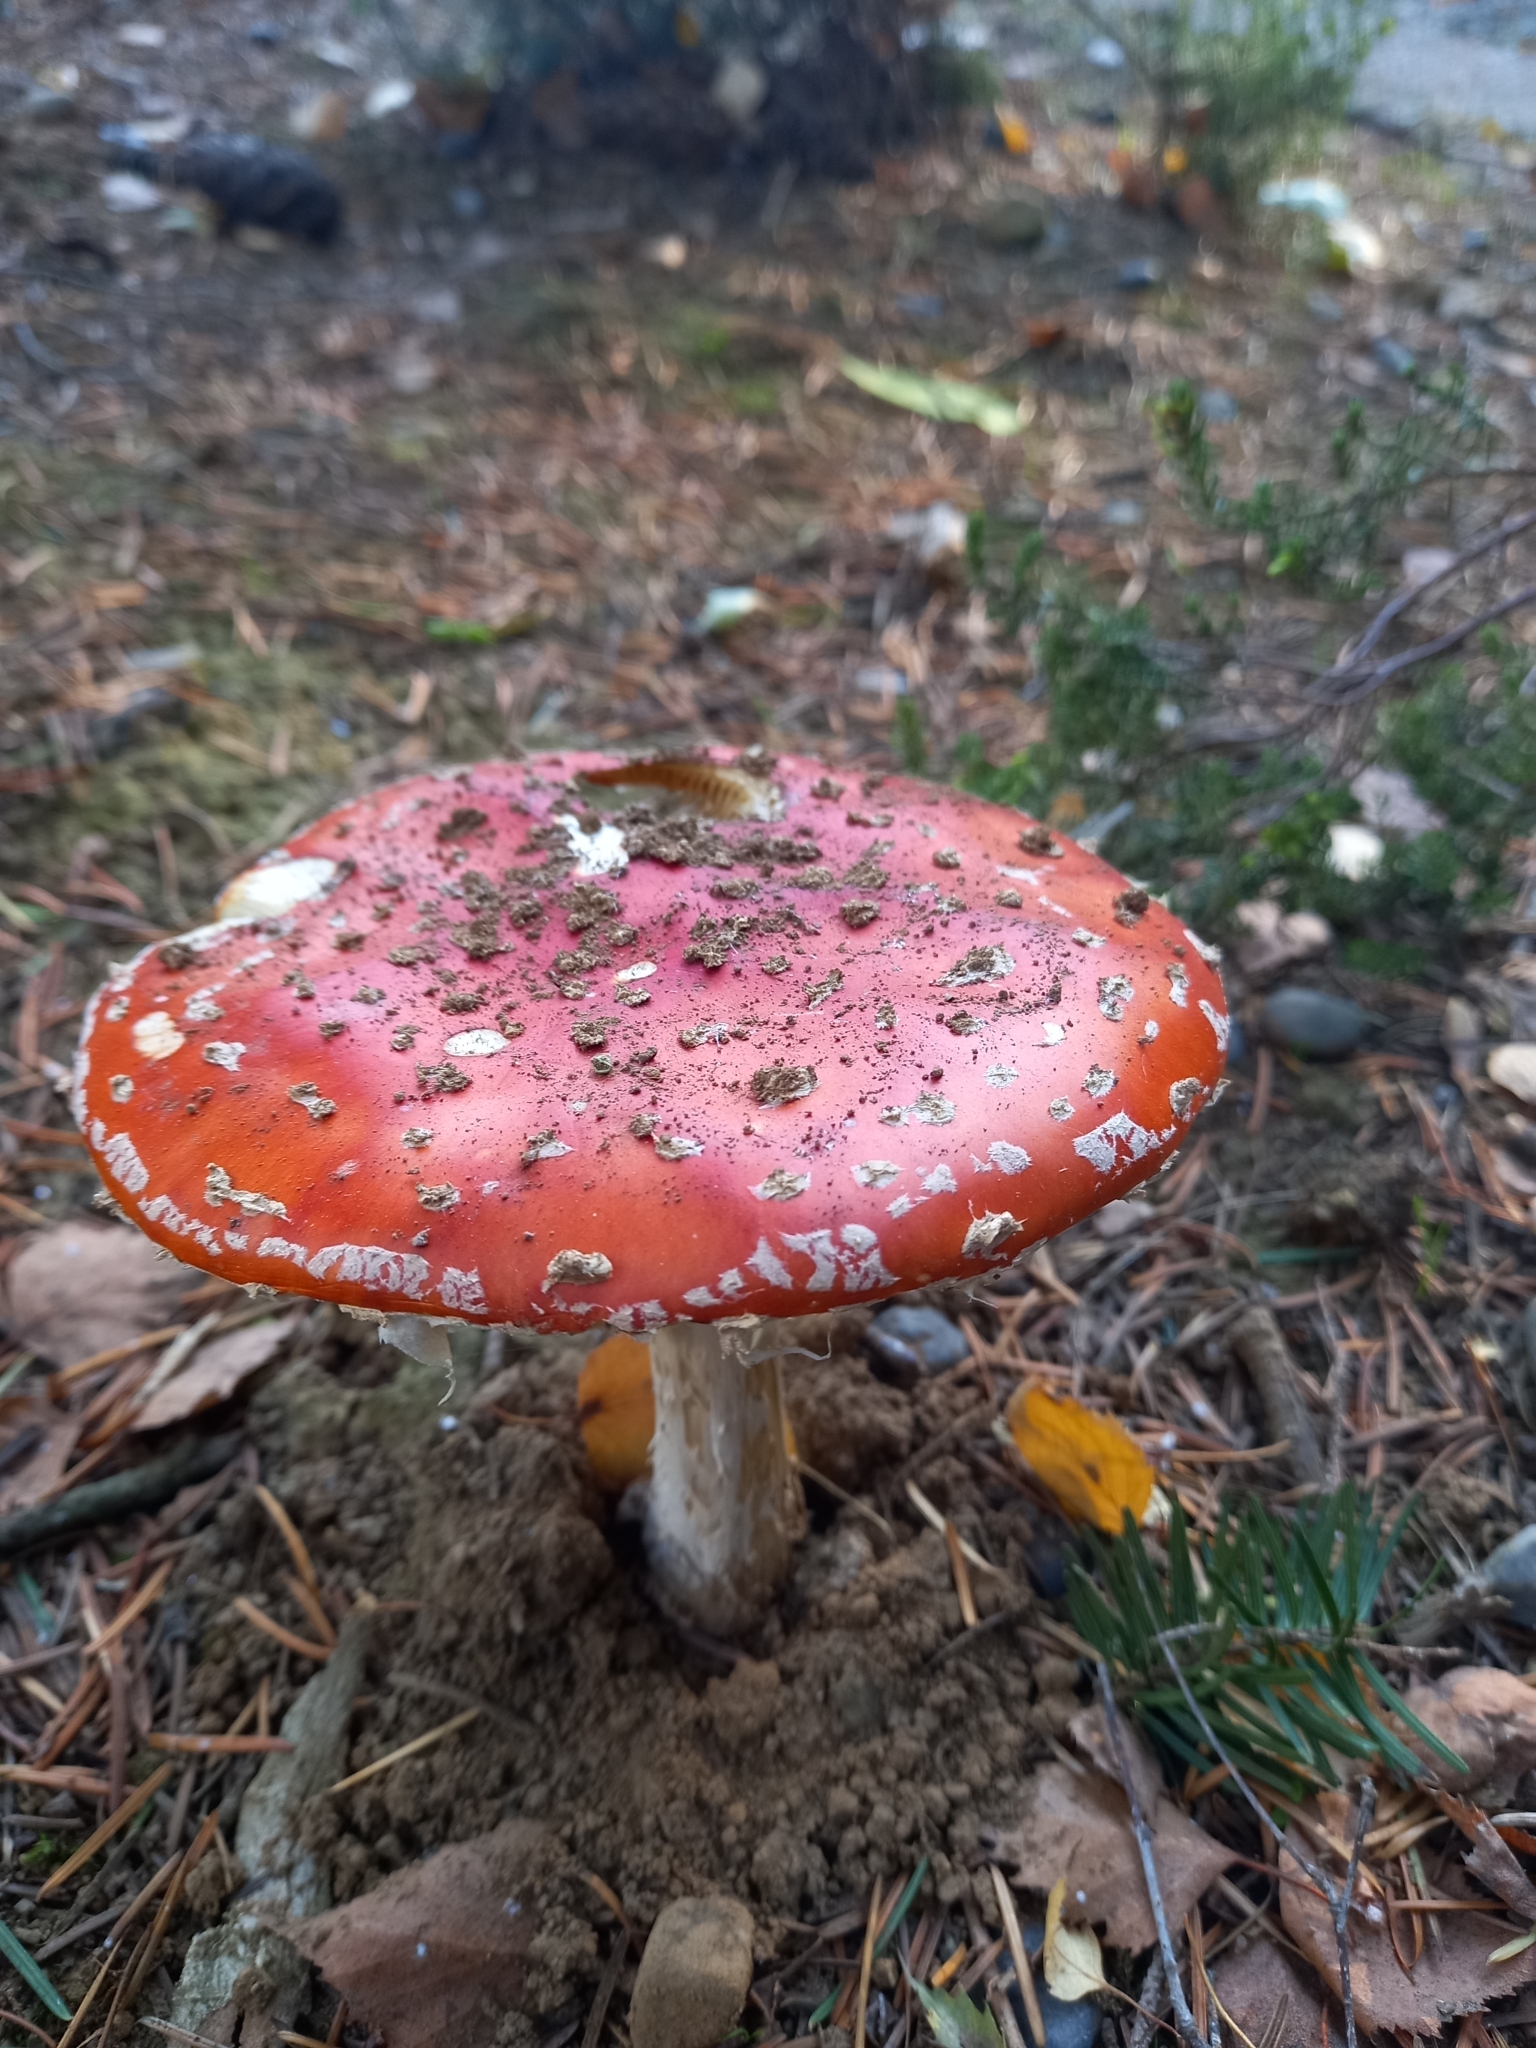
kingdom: Fungi
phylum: Basidiomycota
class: Agaricomycetes
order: Agaricales
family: Amanitaceae
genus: Amanita
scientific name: Amanita muscaria
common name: Fly agaric
